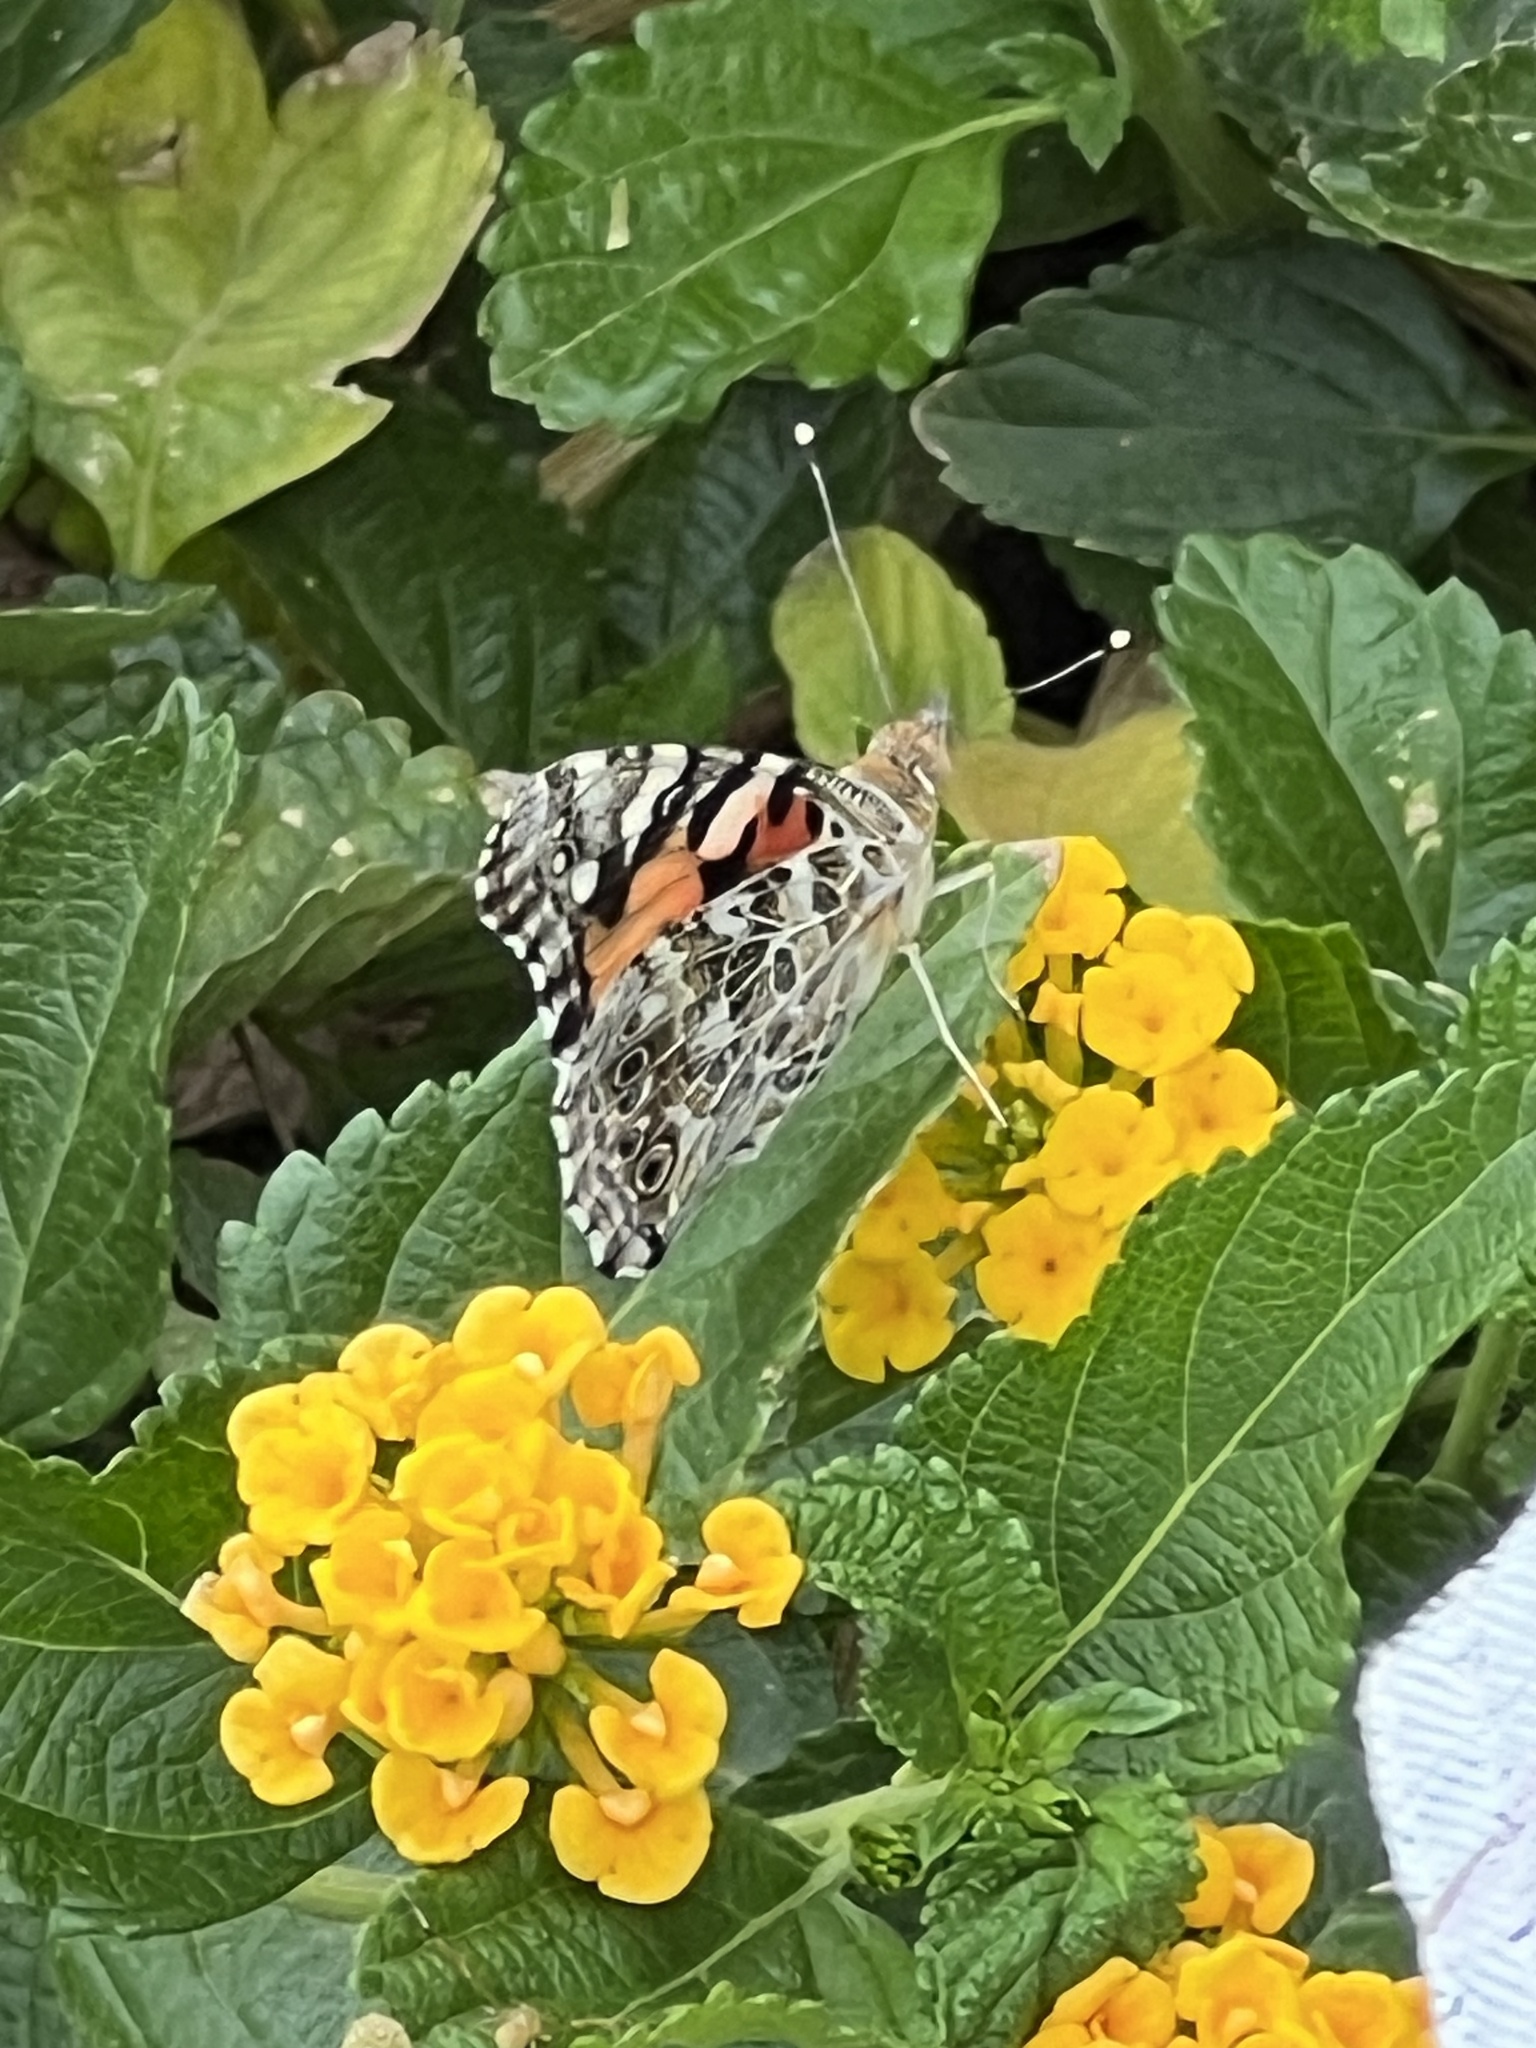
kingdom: Animalia
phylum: Arthropoda
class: Insecta
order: Lepidoptera
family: Nymphalidae
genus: Vanessa
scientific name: Vanessa cardui
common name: Painted lady
